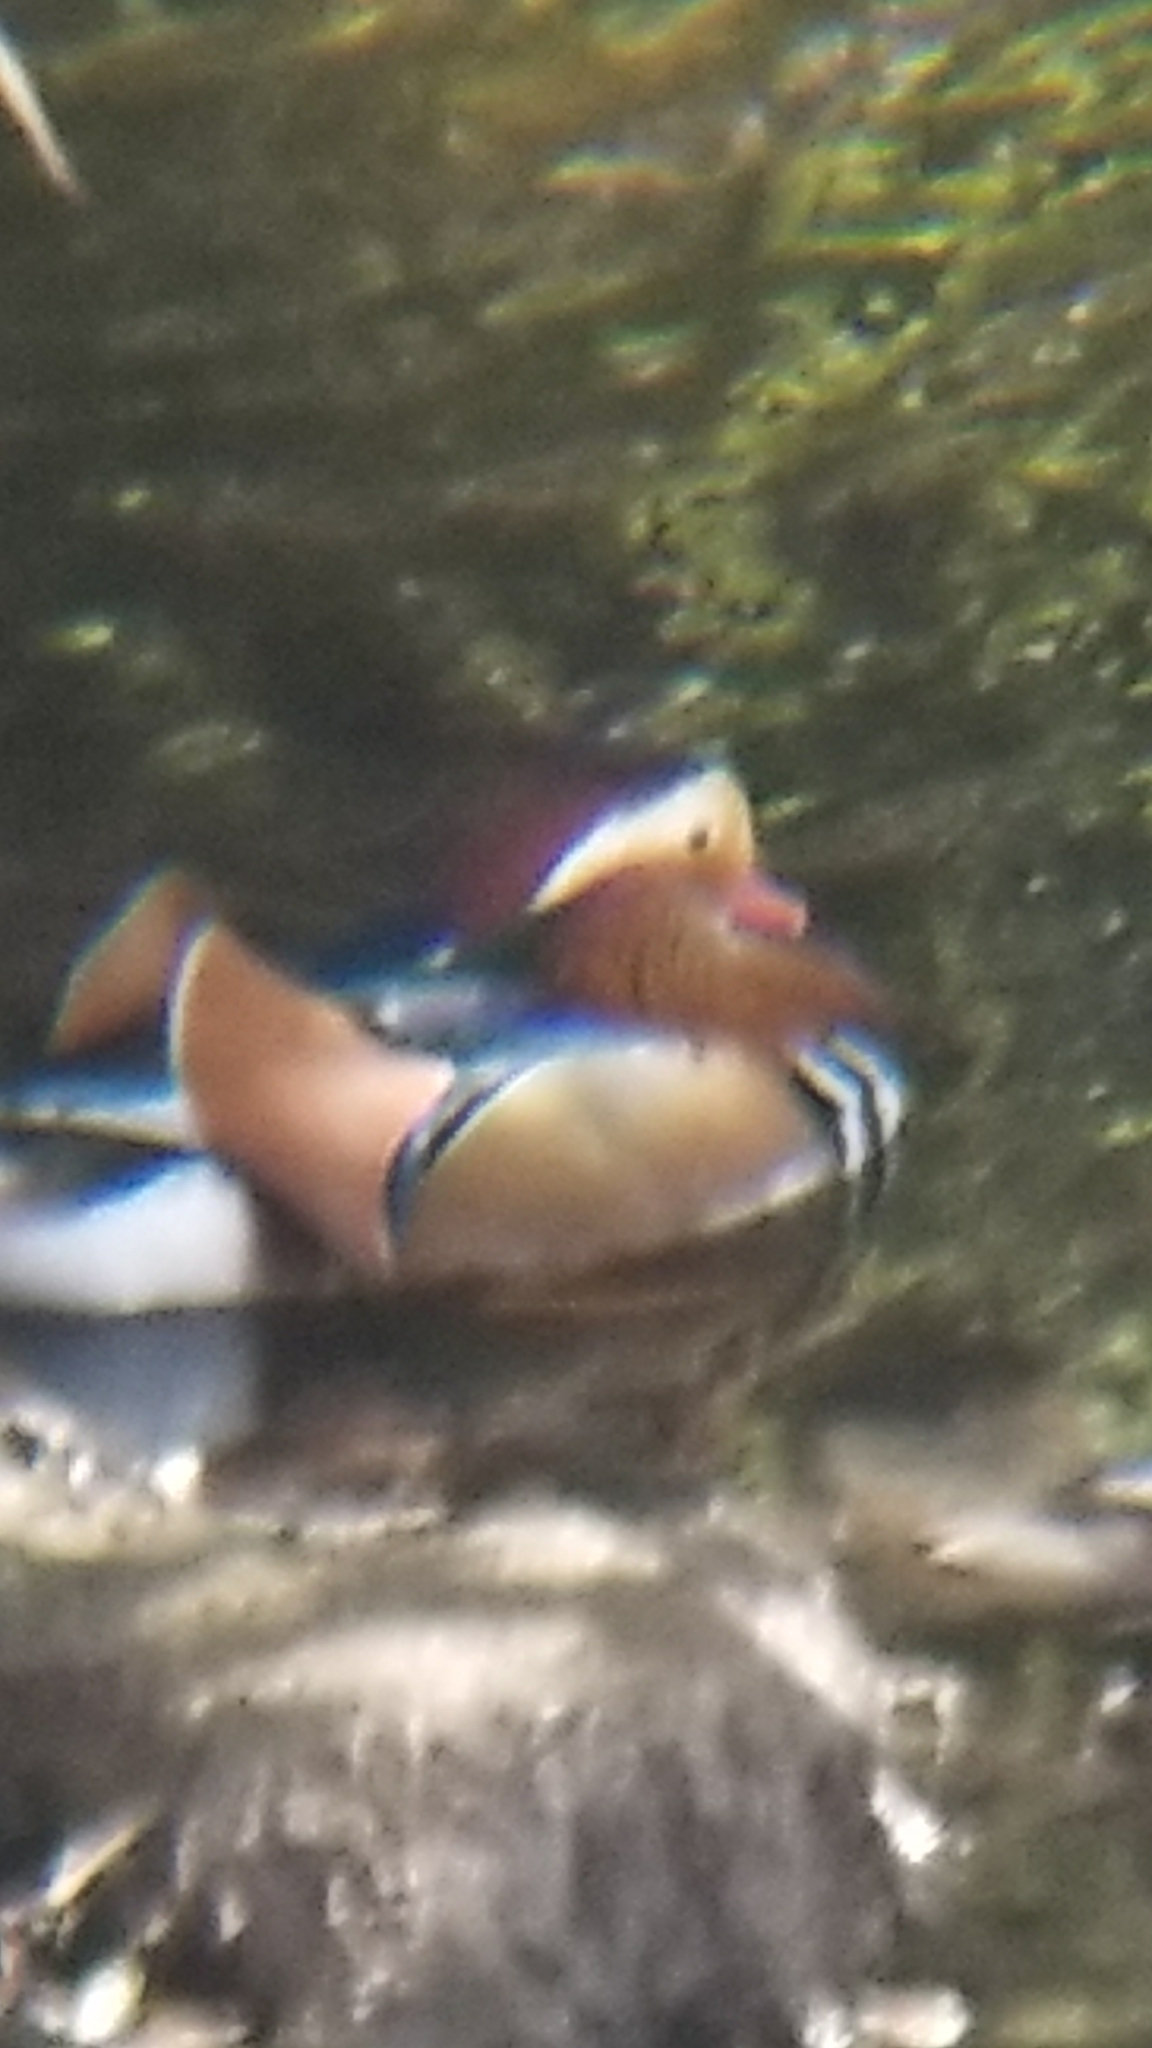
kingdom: Animalia
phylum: Chordata
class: Aves
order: Anseriformes
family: Anatidae
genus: Aix
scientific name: Aix sponsa
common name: Wood duck
